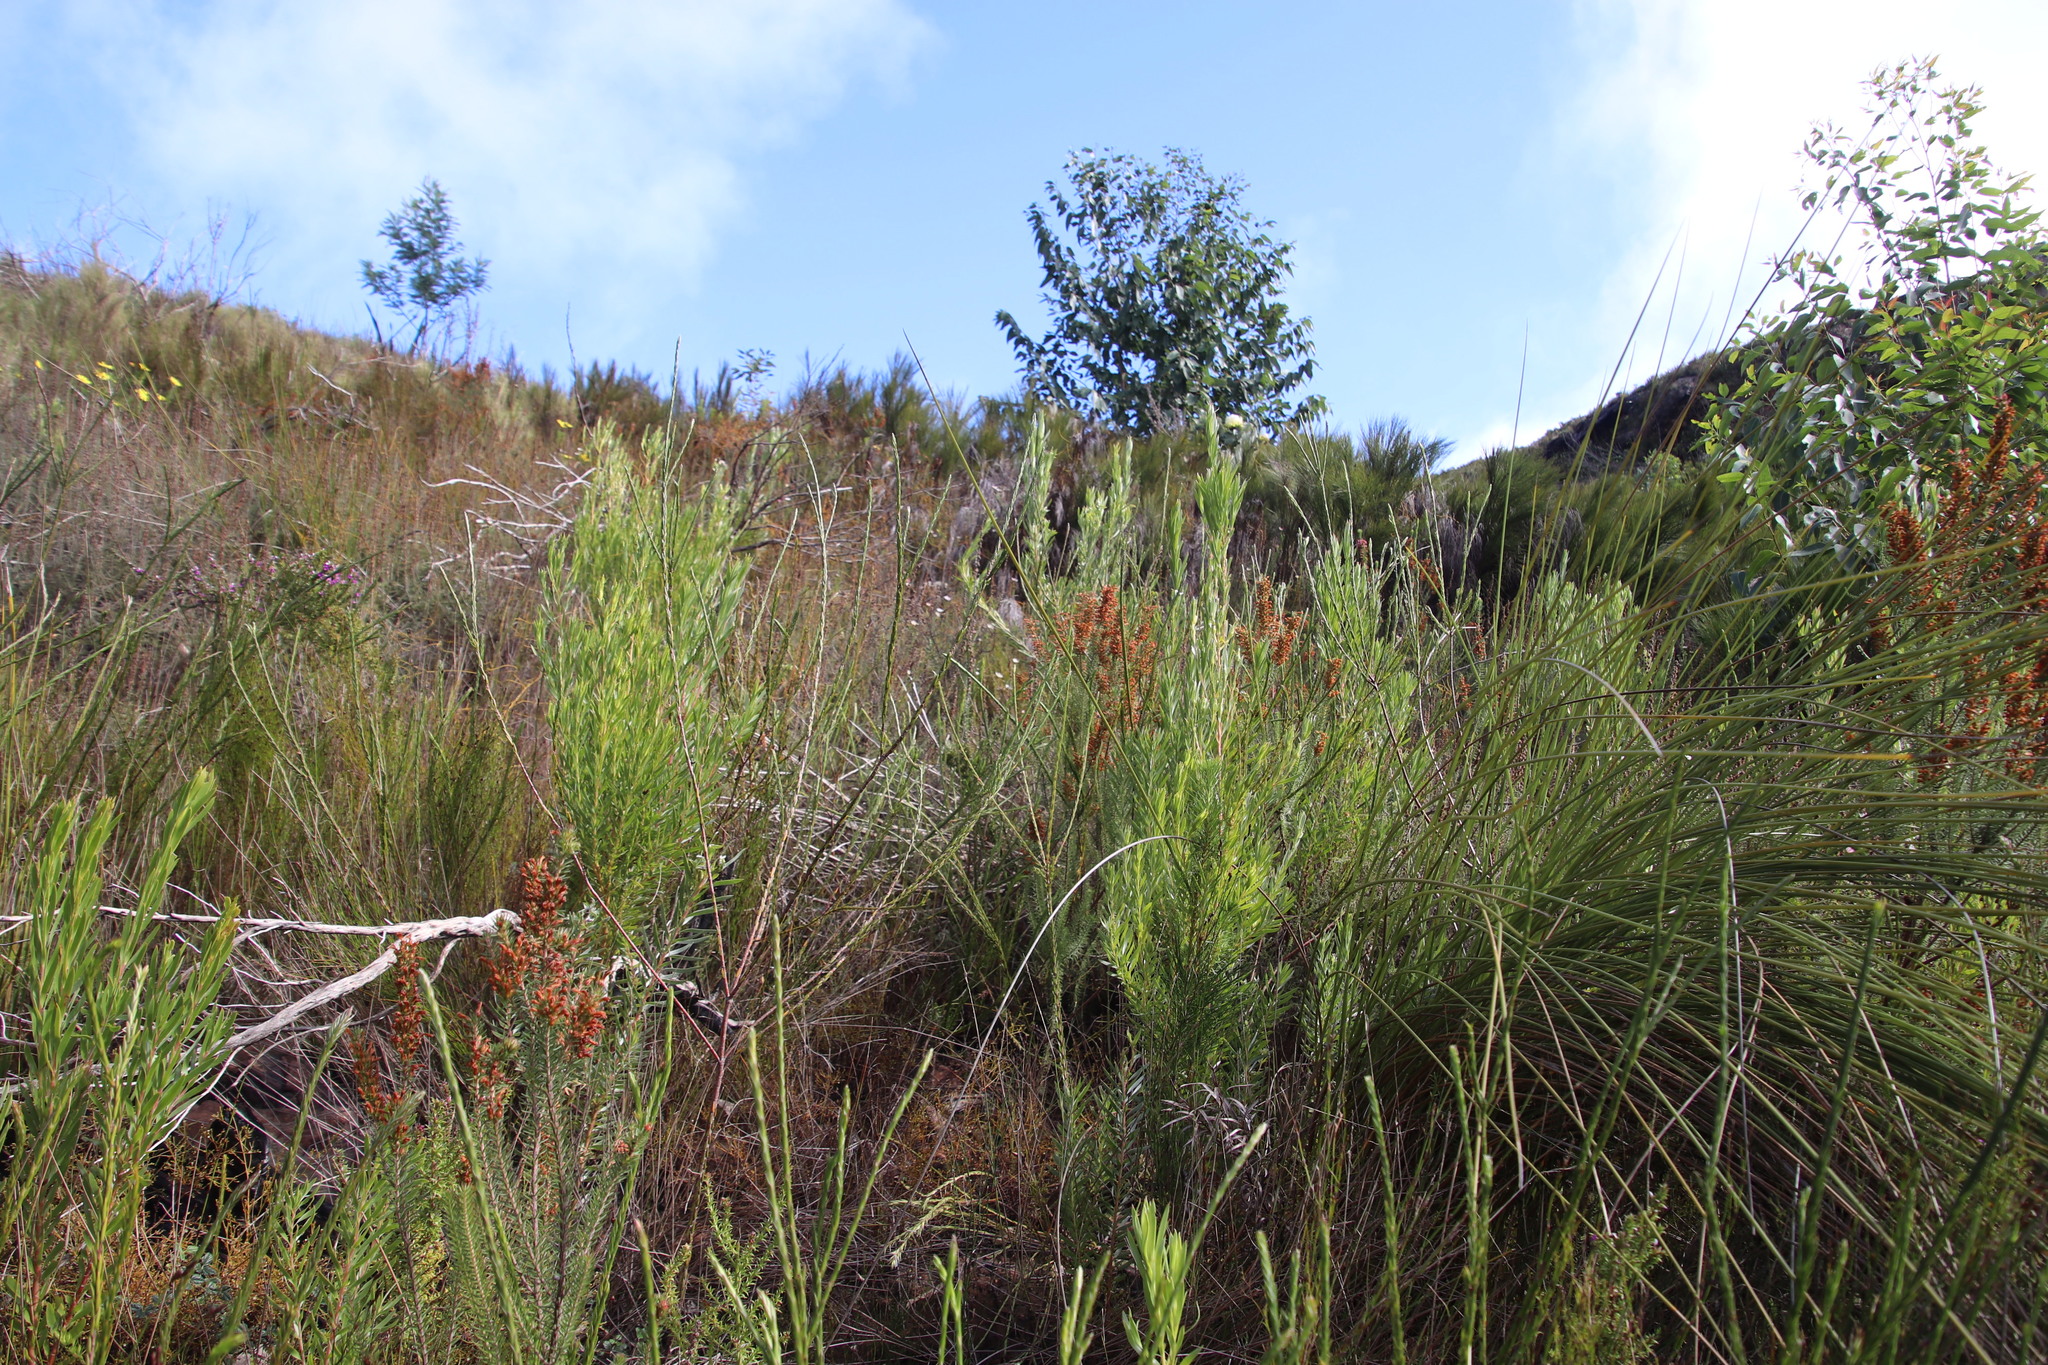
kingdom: Plantae
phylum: Tracheophyta
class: Magnoliopsida
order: Ericales
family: Ericaceae
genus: Erica
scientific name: Erica abietina
